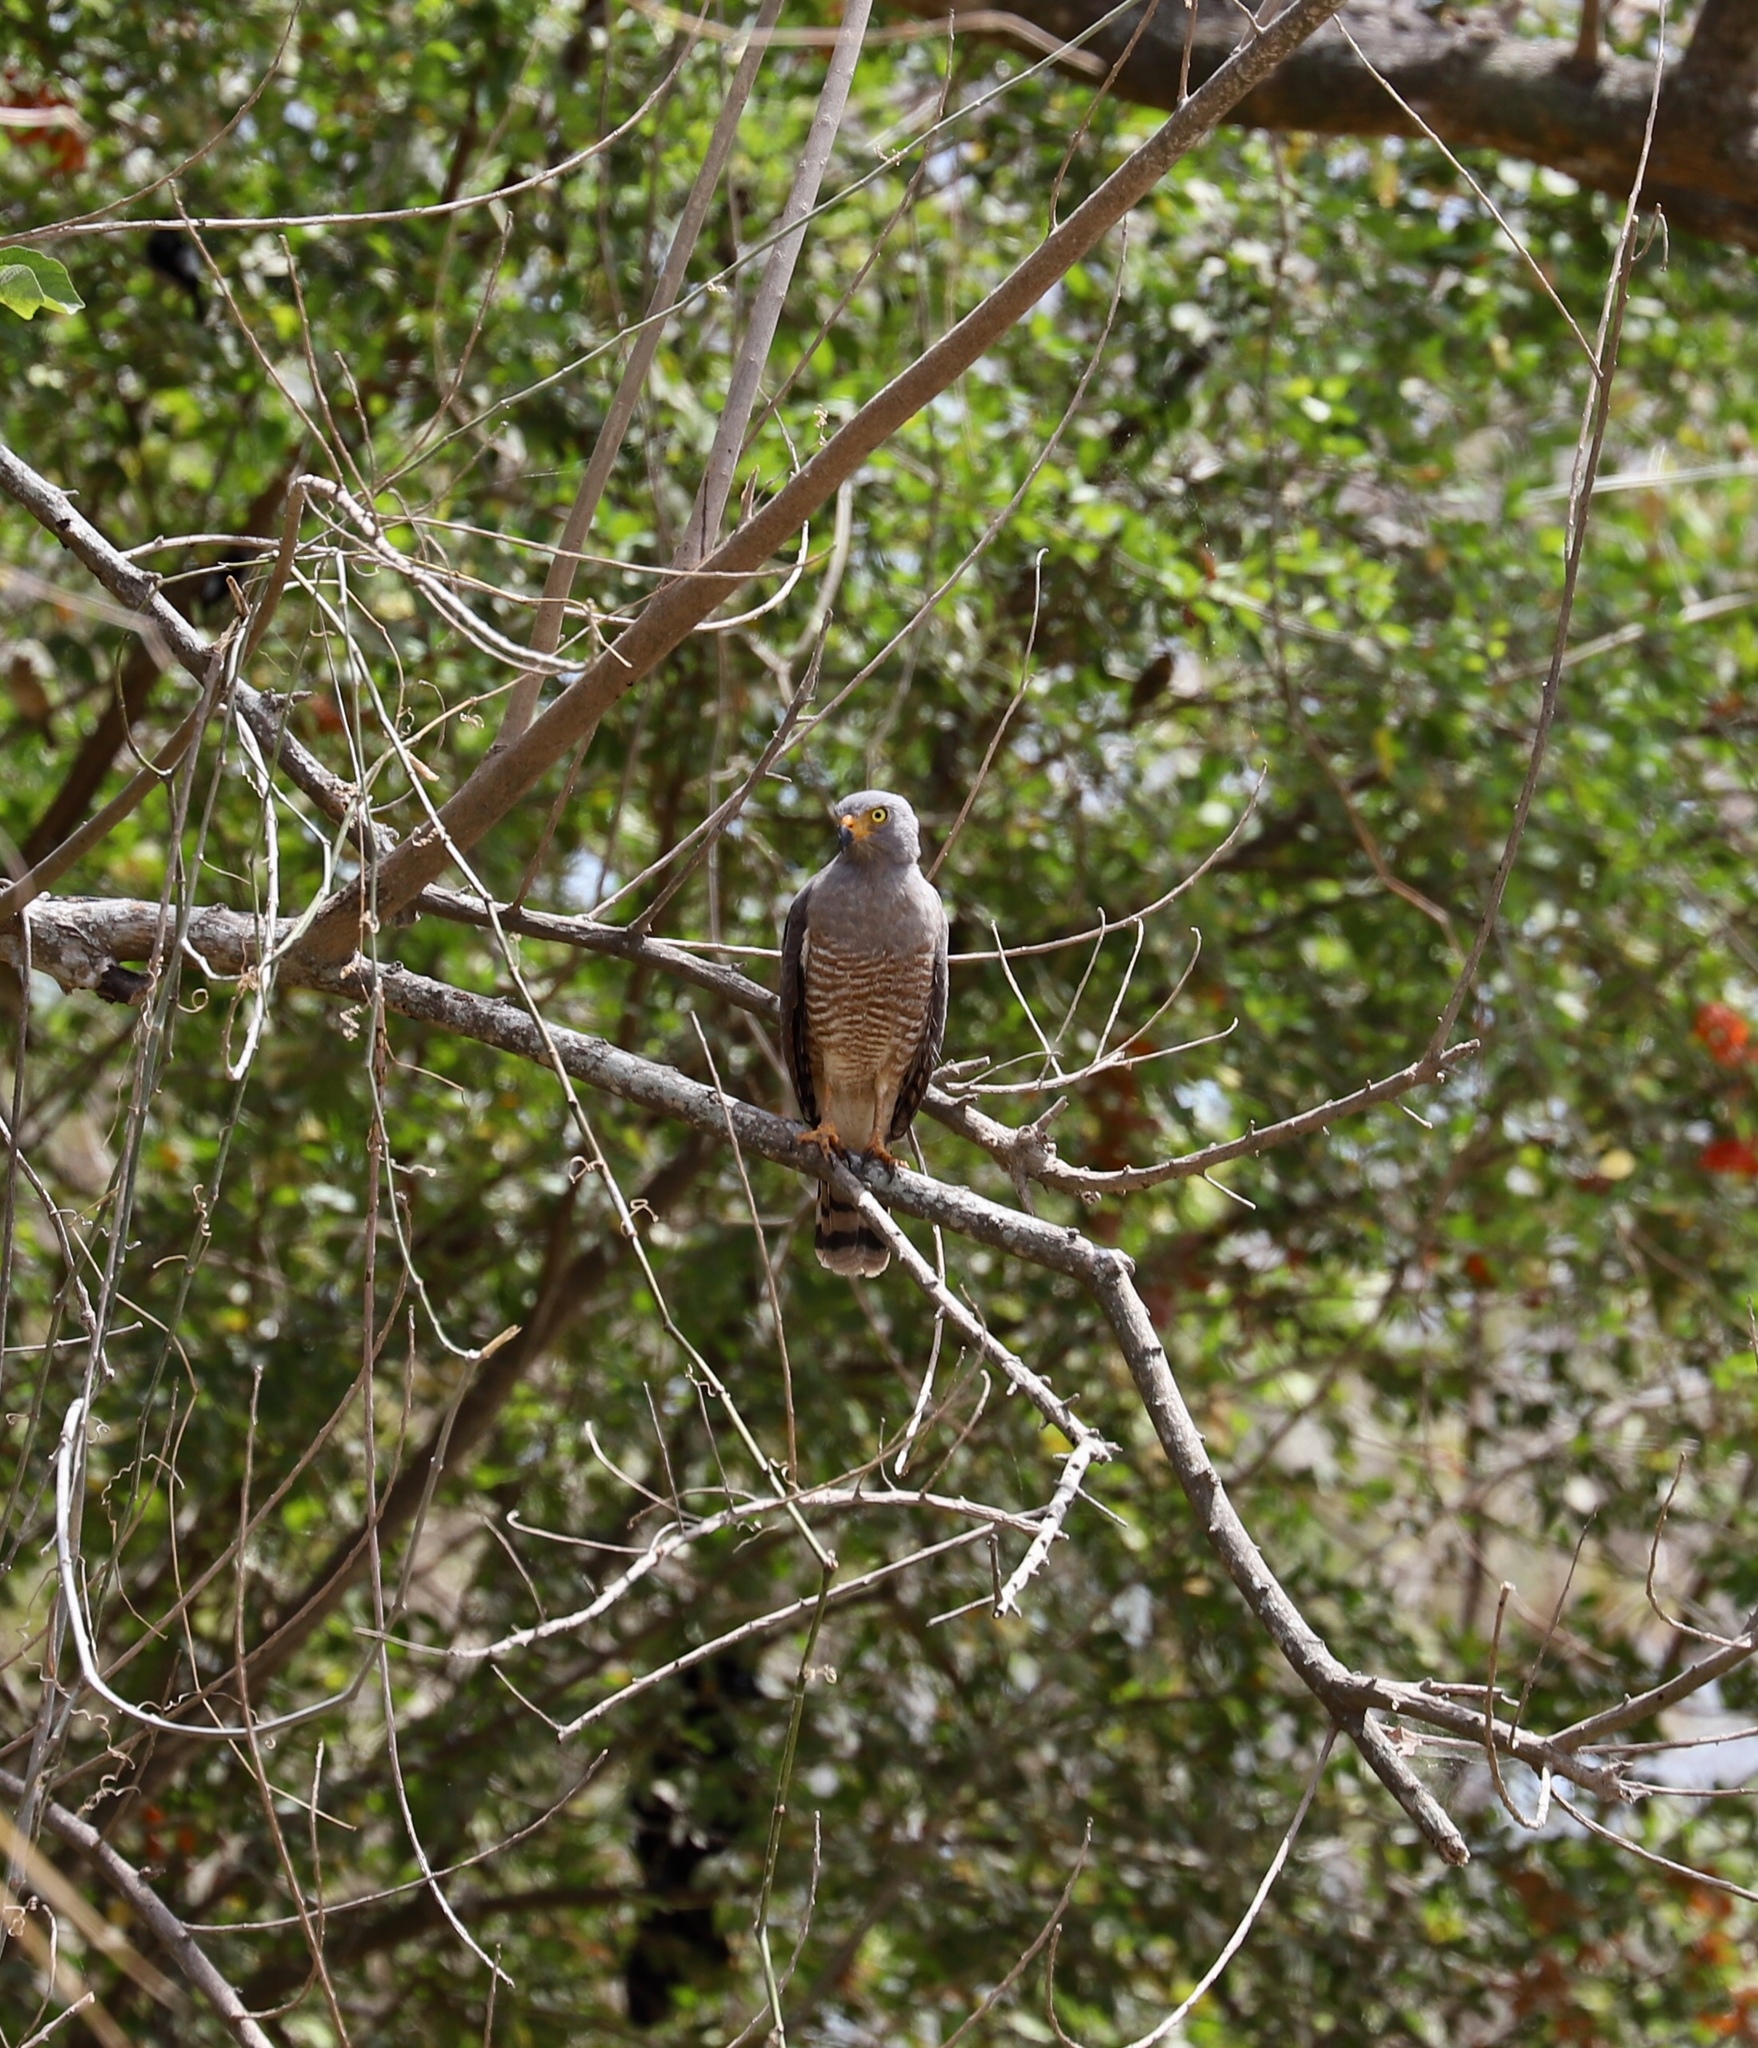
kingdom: Animalia
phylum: Chordata
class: Aves
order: Accipitriformes
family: Accipitridae
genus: Rupornis
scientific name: Rupornis magnirostris
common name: Roadside hawk
